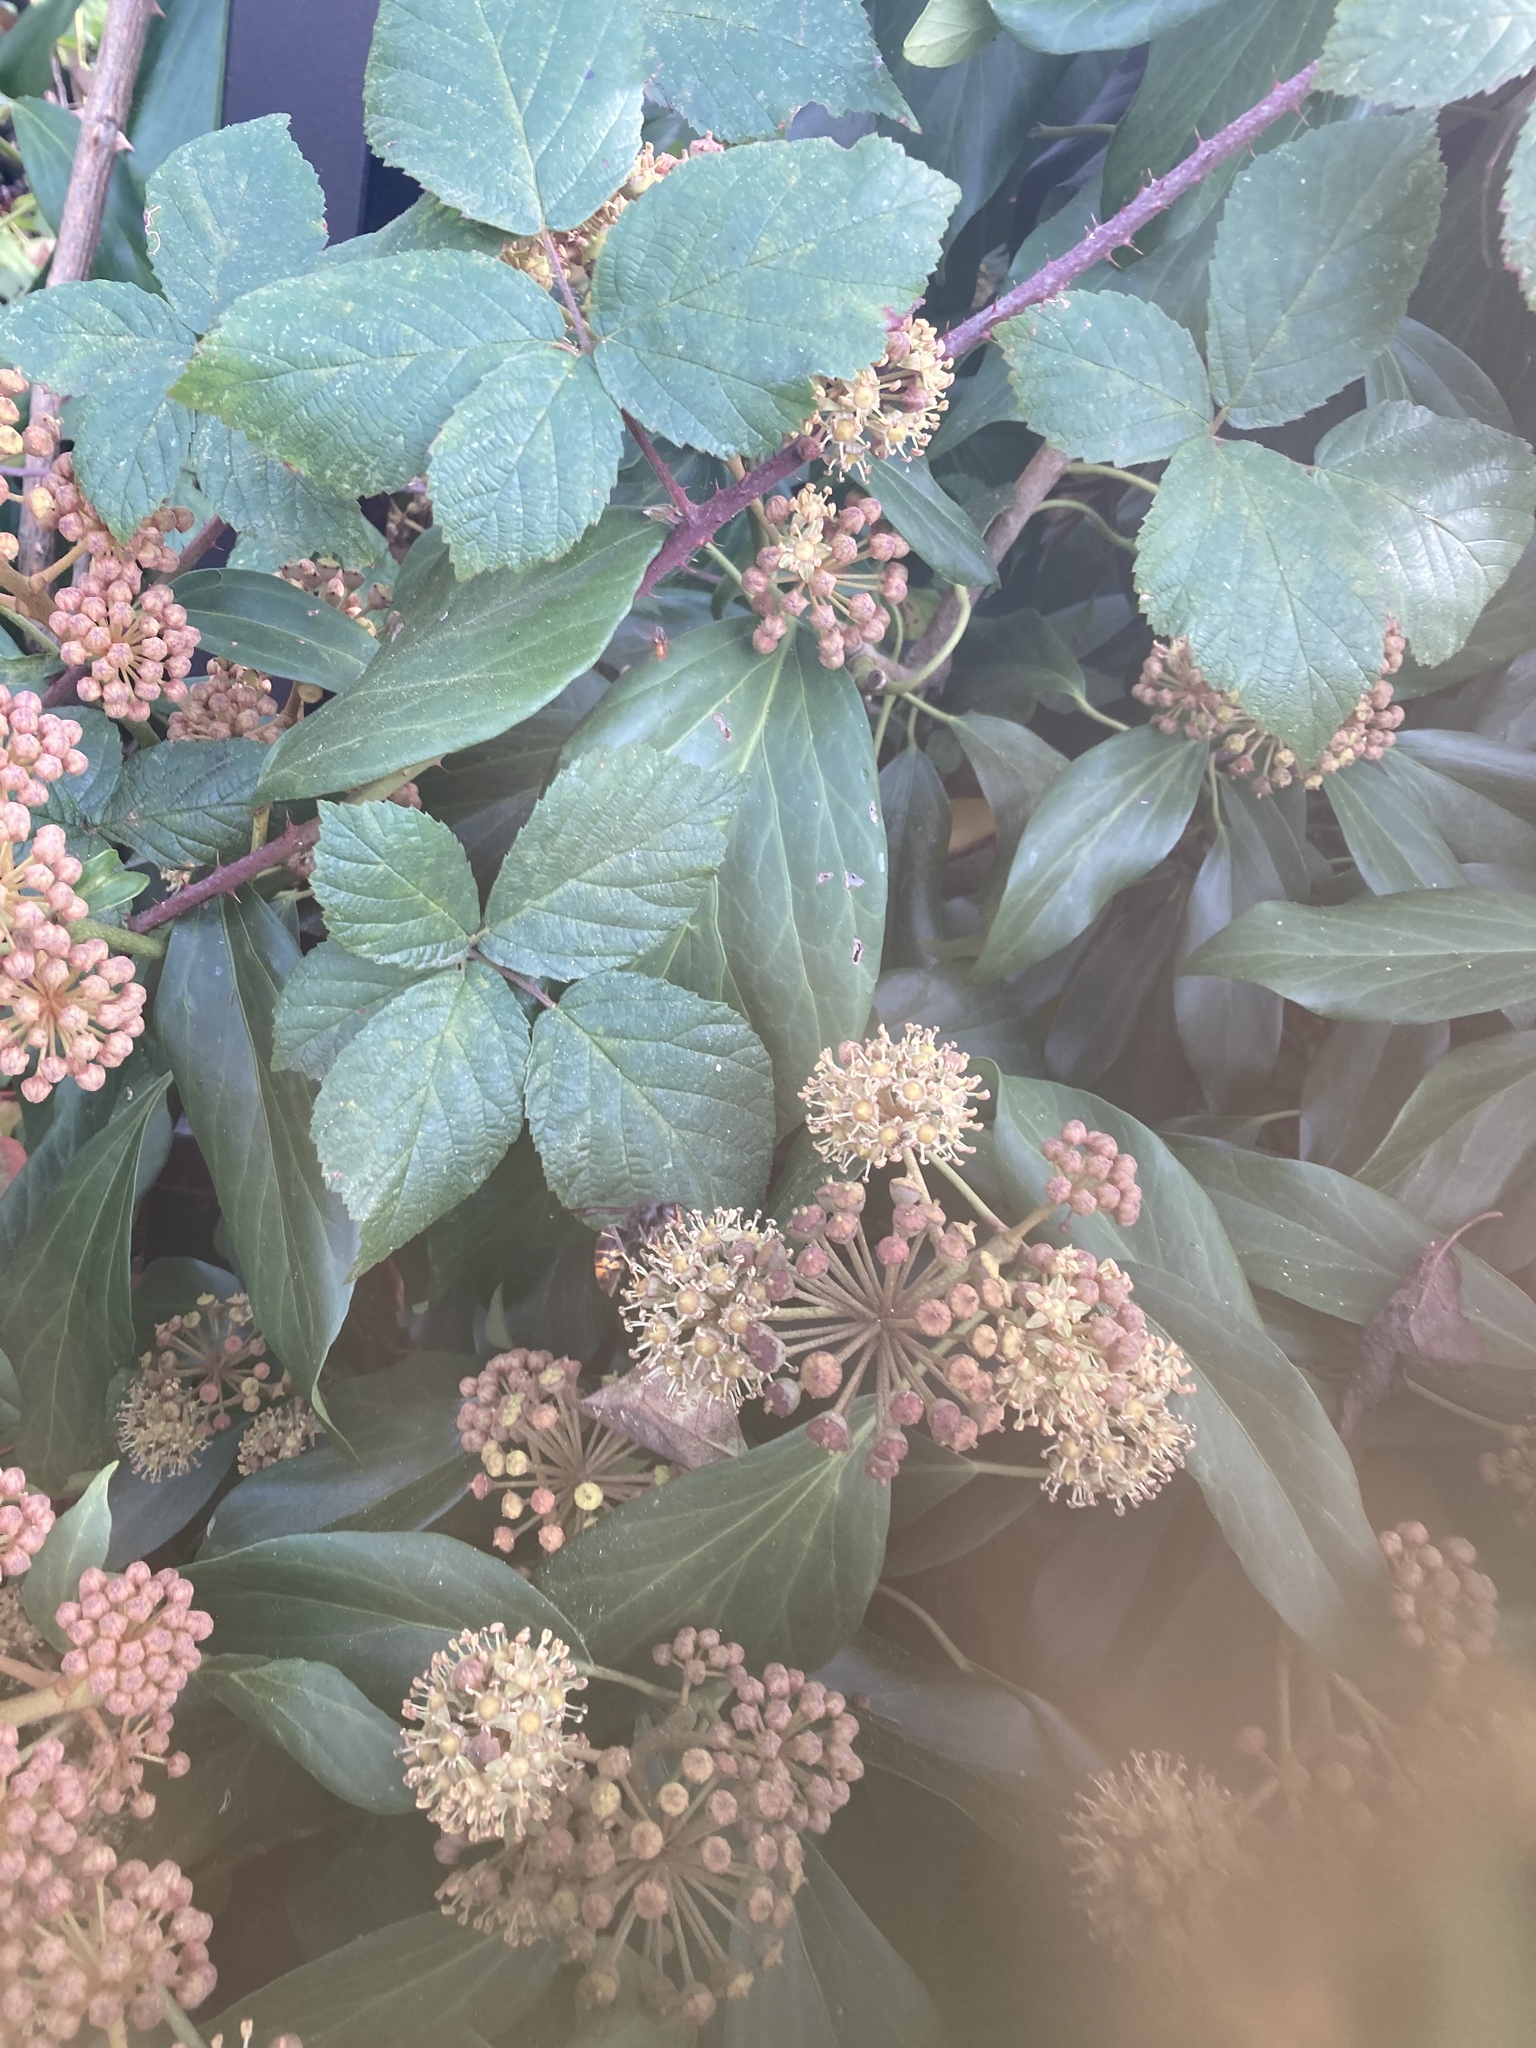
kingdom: Animalia
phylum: Arthropoda
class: Insecta
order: Hymenoptera
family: Vespidae
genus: Vespa
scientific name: Vespa velutina
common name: Asian hornet
